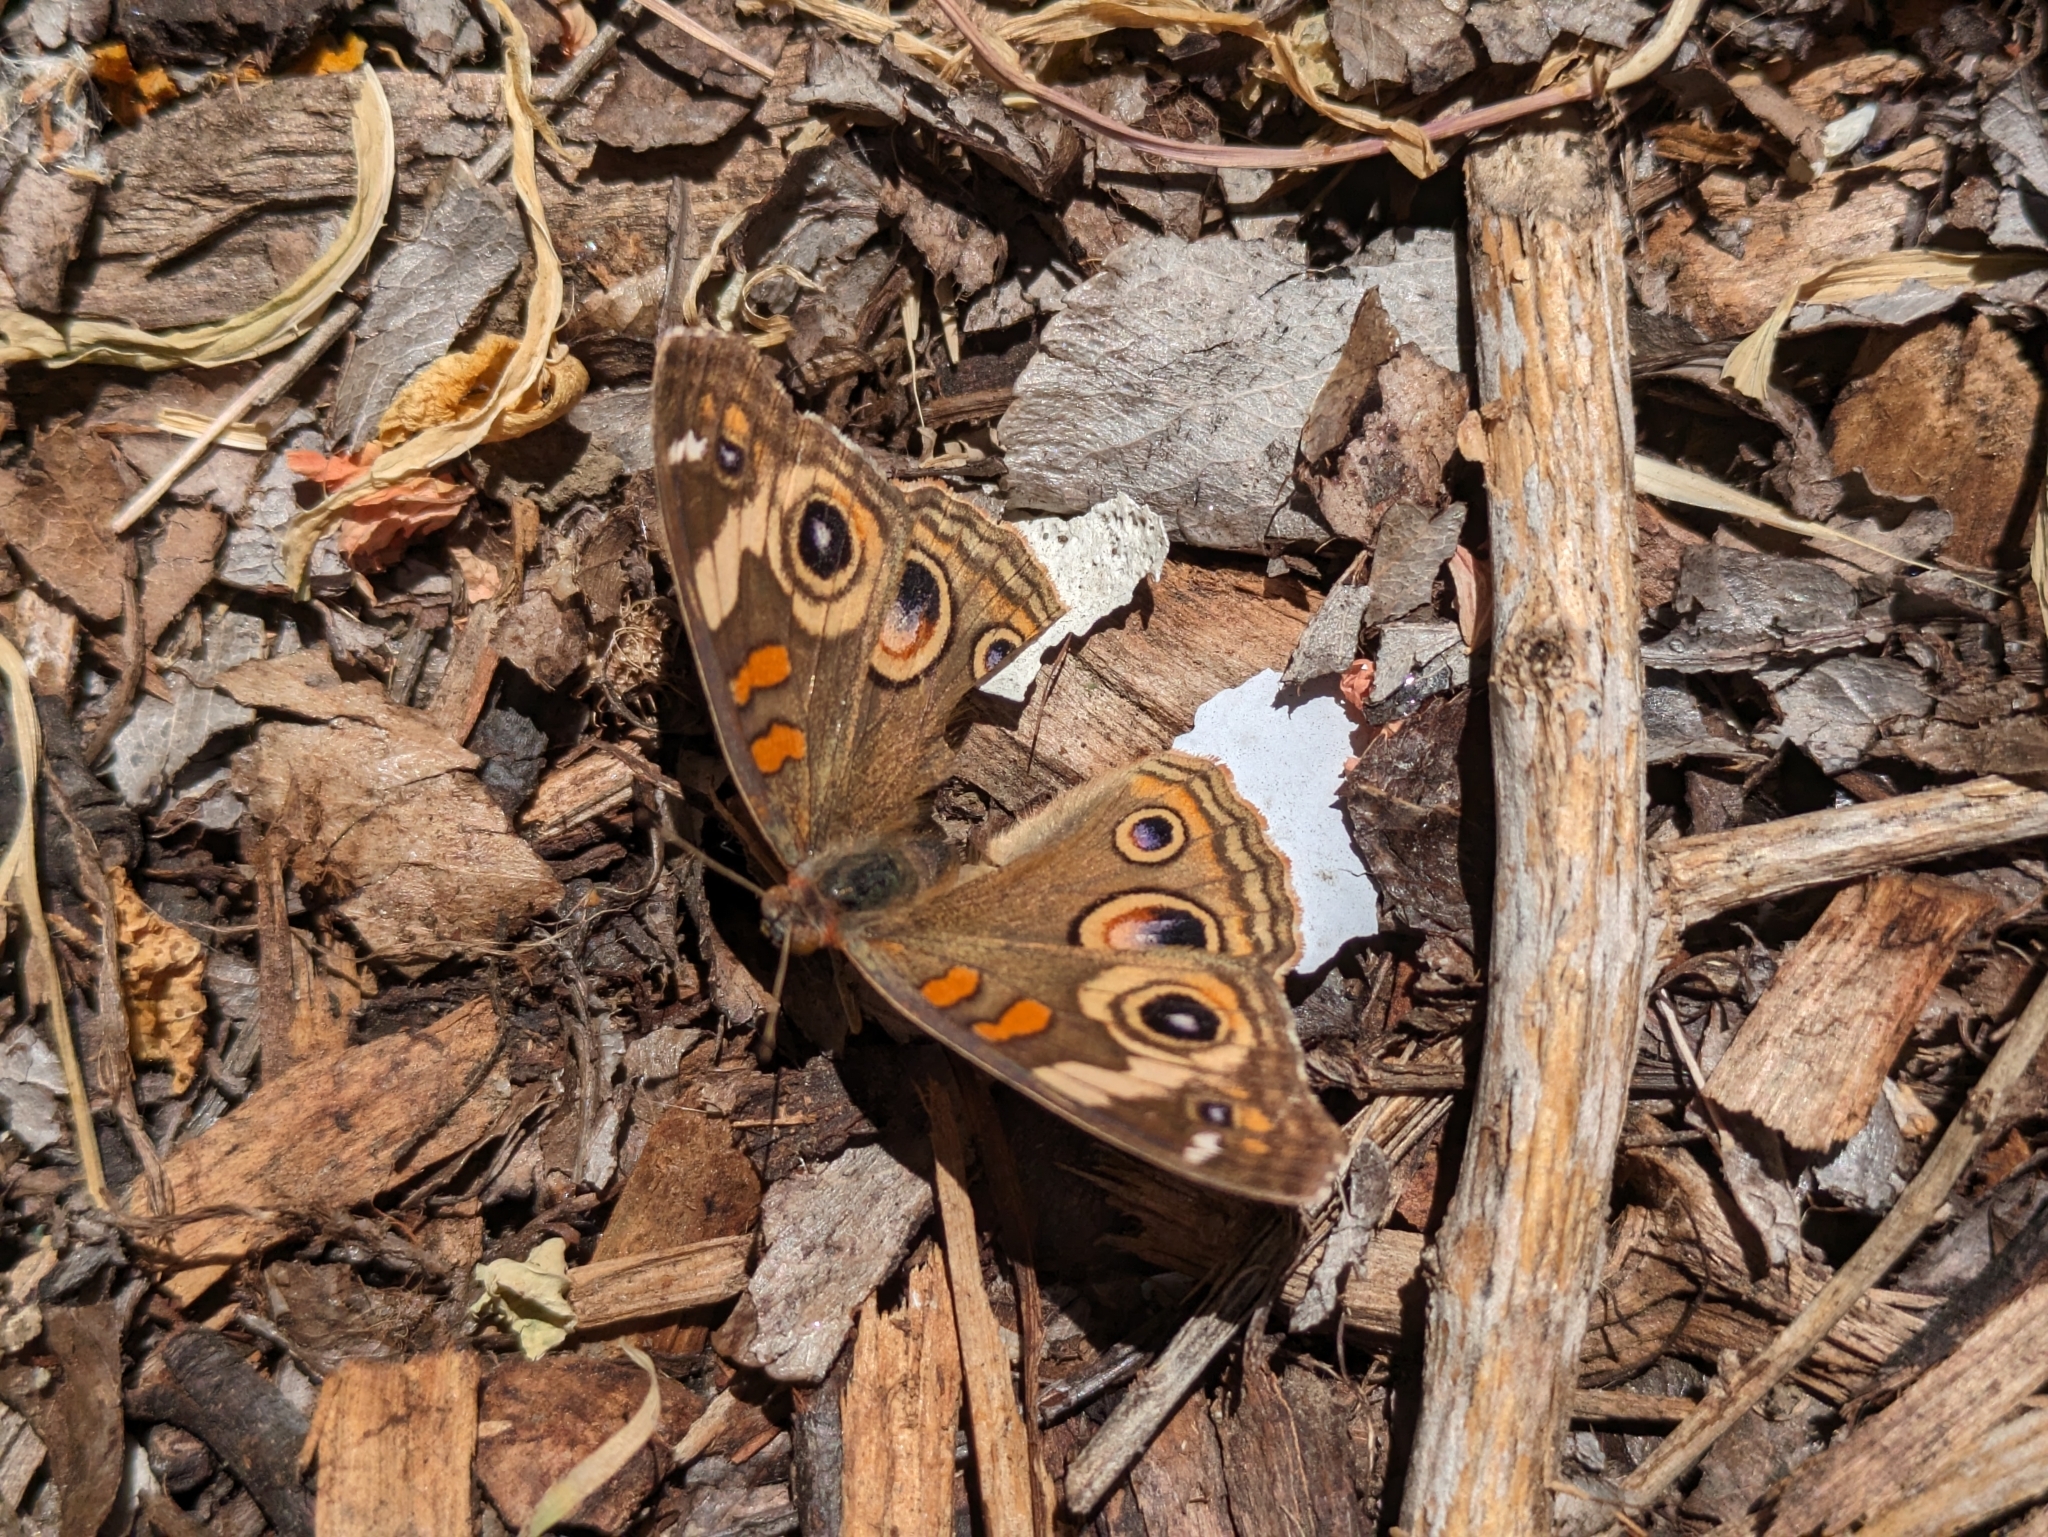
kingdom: Animalia
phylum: Arthropoda
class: Insecta
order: Lepidoptera
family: Nymphalidae
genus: Junonia
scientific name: Junonia grisea
